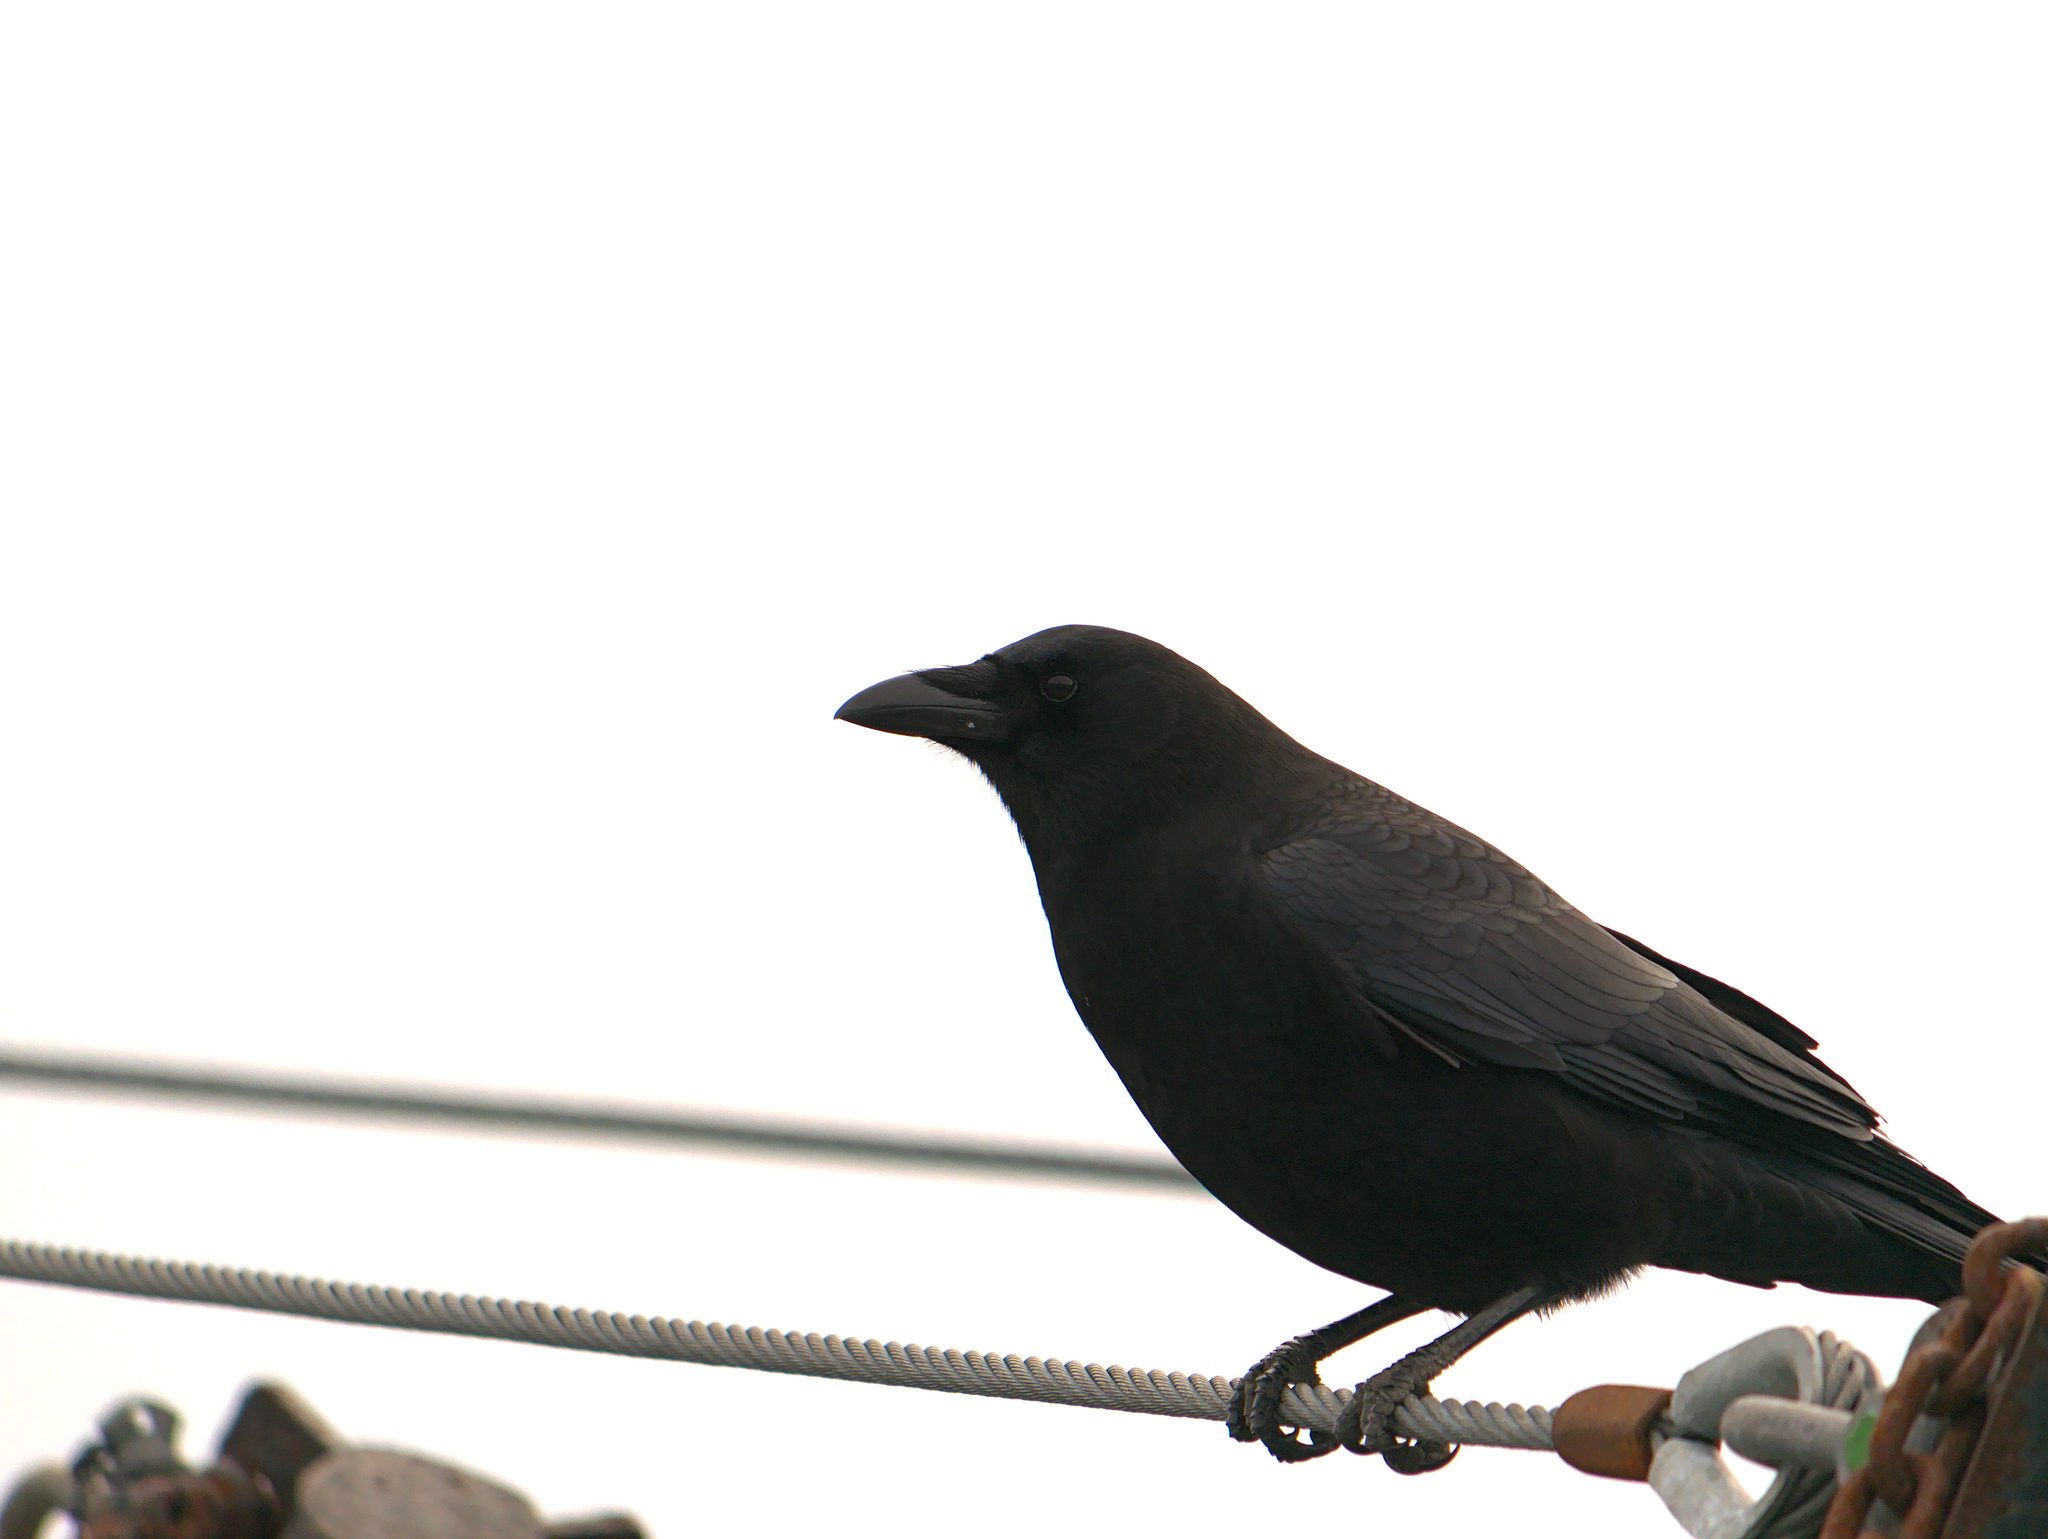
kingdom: Animalia
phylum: Chordata
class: Aves
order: Passeriformes
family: Corvidae
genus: Corvus
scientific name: Corvus brachyrhynchos
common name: American crow
